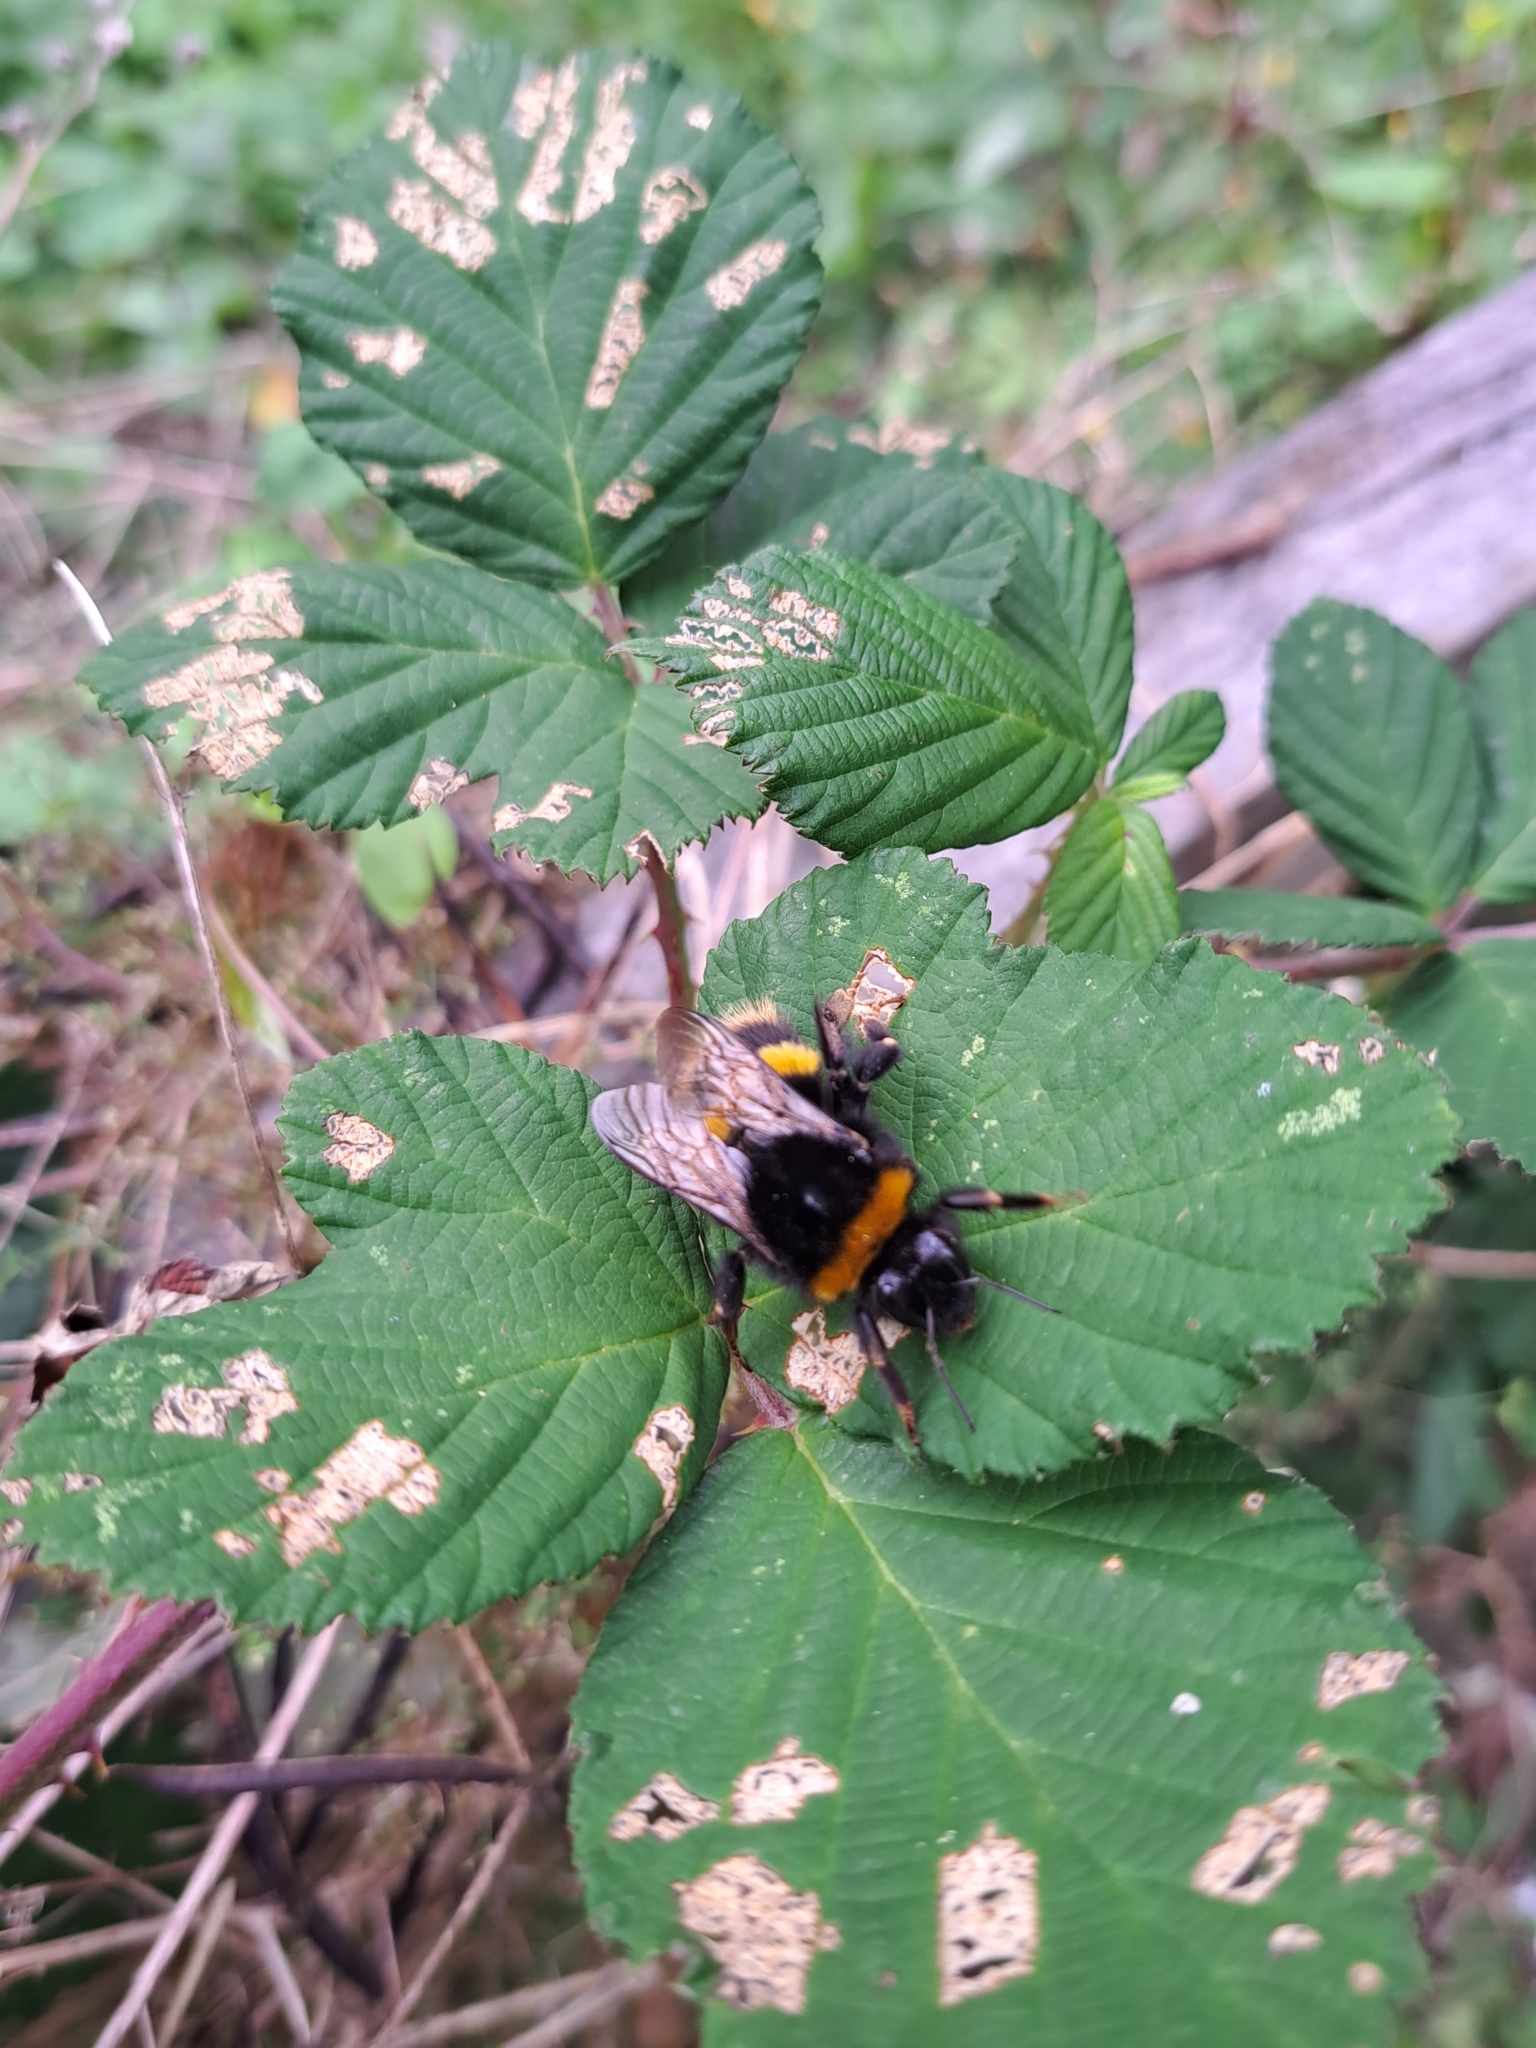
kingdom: Animalia
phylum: Arthropoda
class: Insecta
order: Hymenoptera
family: Apidae
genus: Bombus
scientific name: Bombus terrestris
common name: Buff-tailed bumblebee
